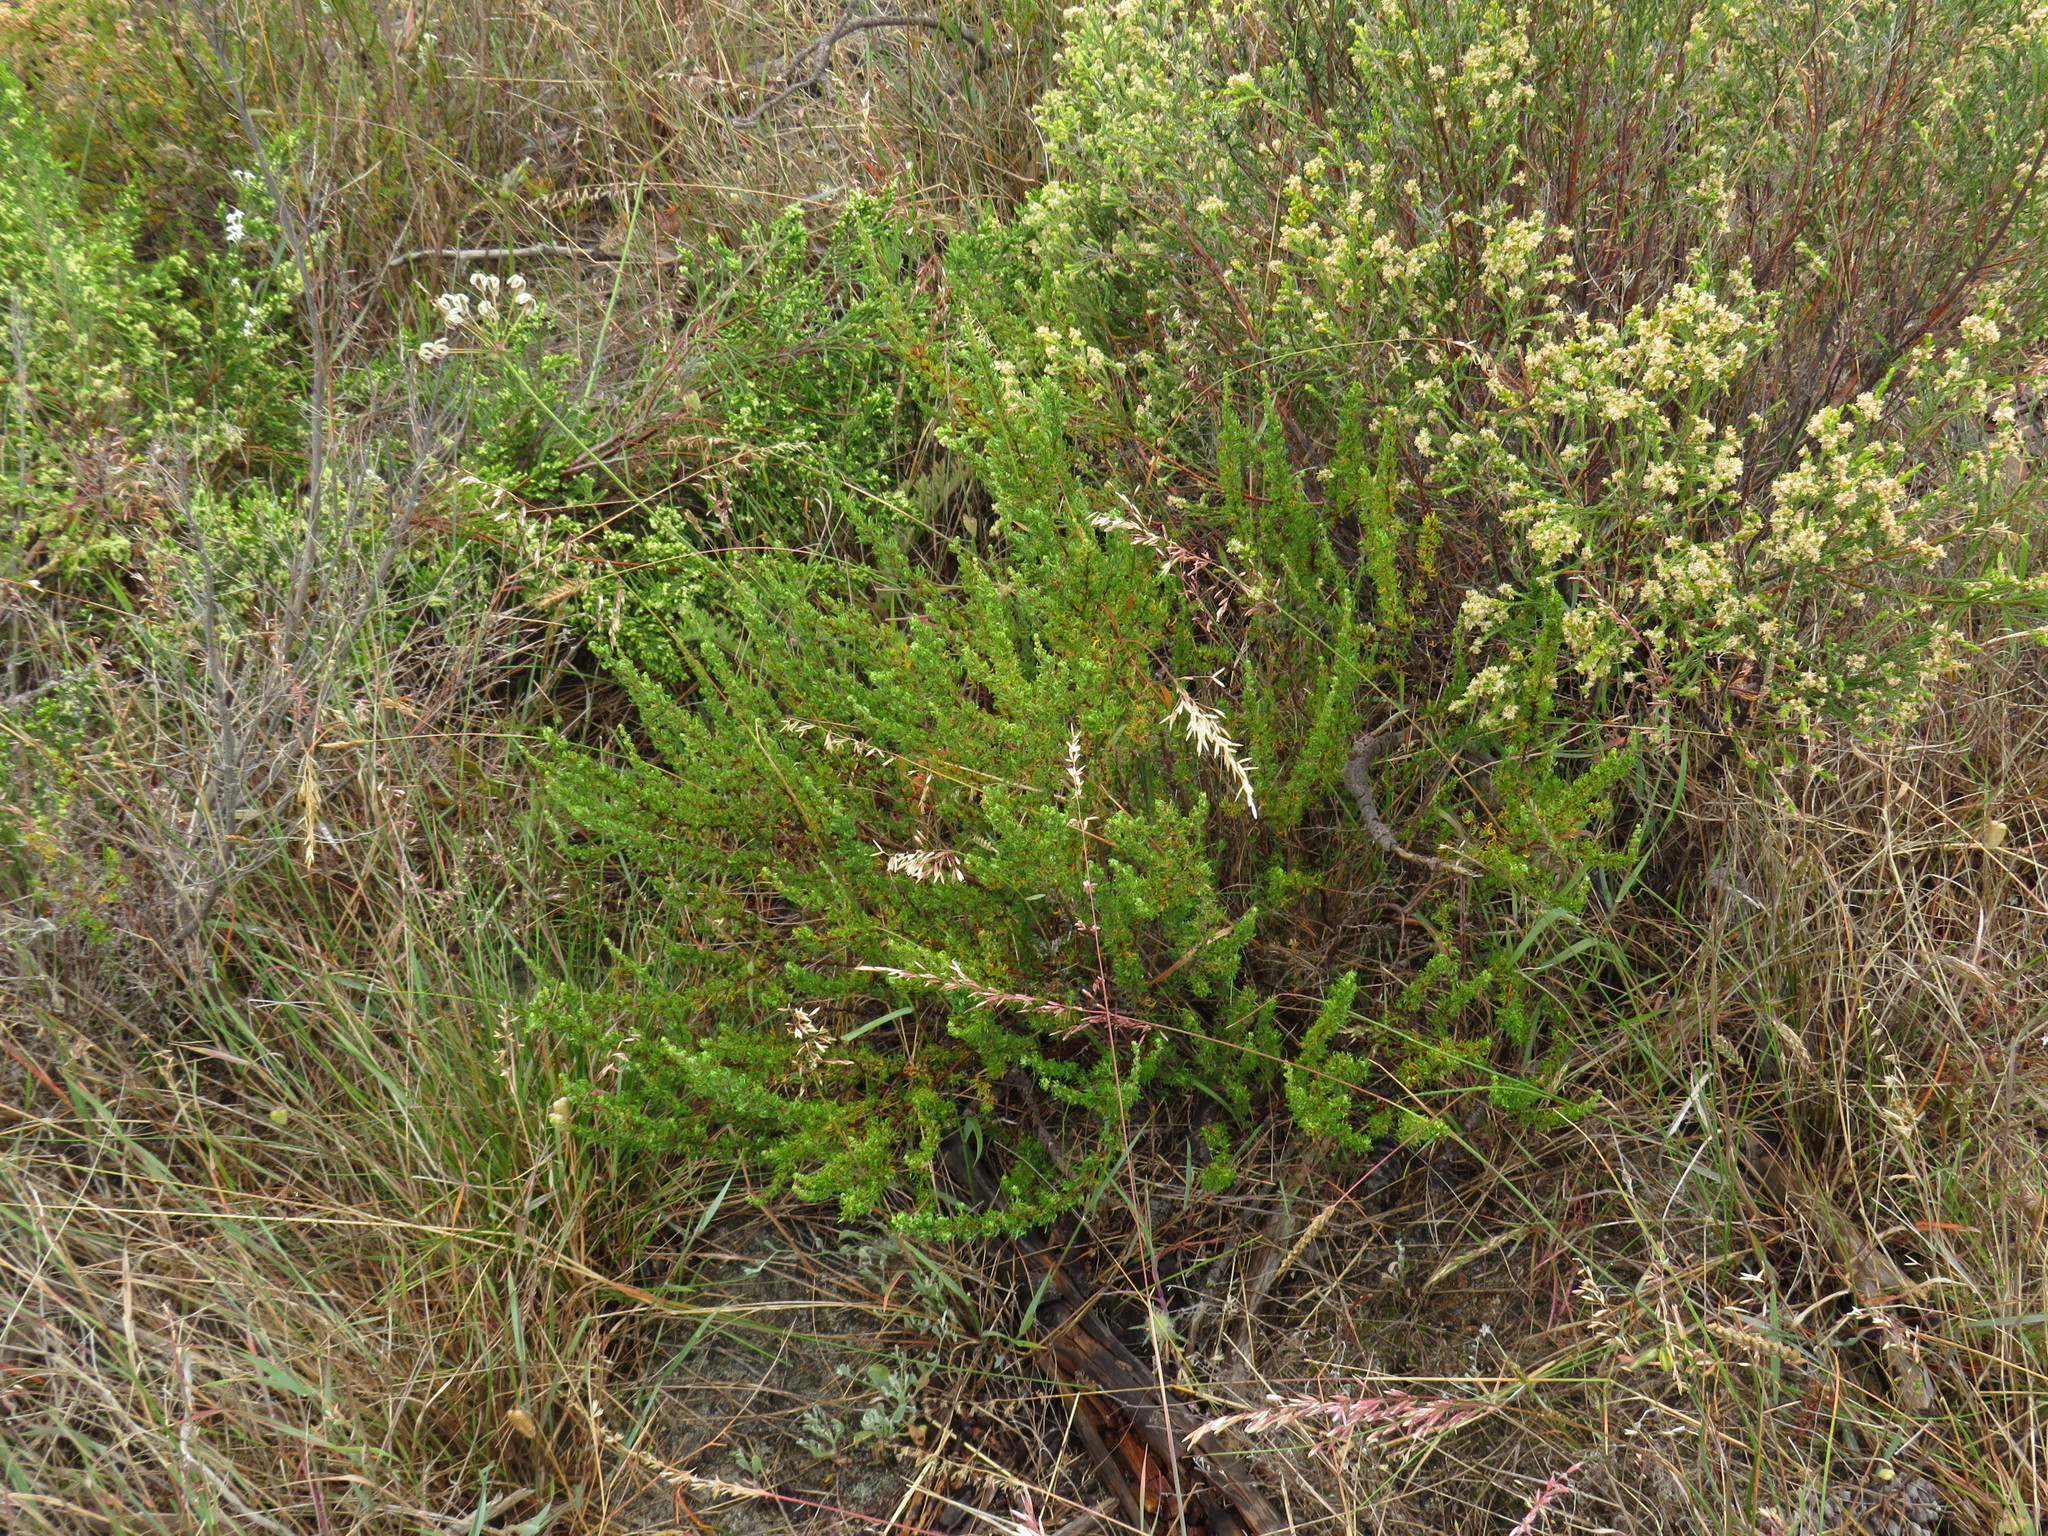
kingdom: Plantae
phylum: Tracheophyta
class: Magnoliopsida
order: Rosales
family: Rosaceae
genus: Cliffortia
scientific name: Cliffortia falcata
